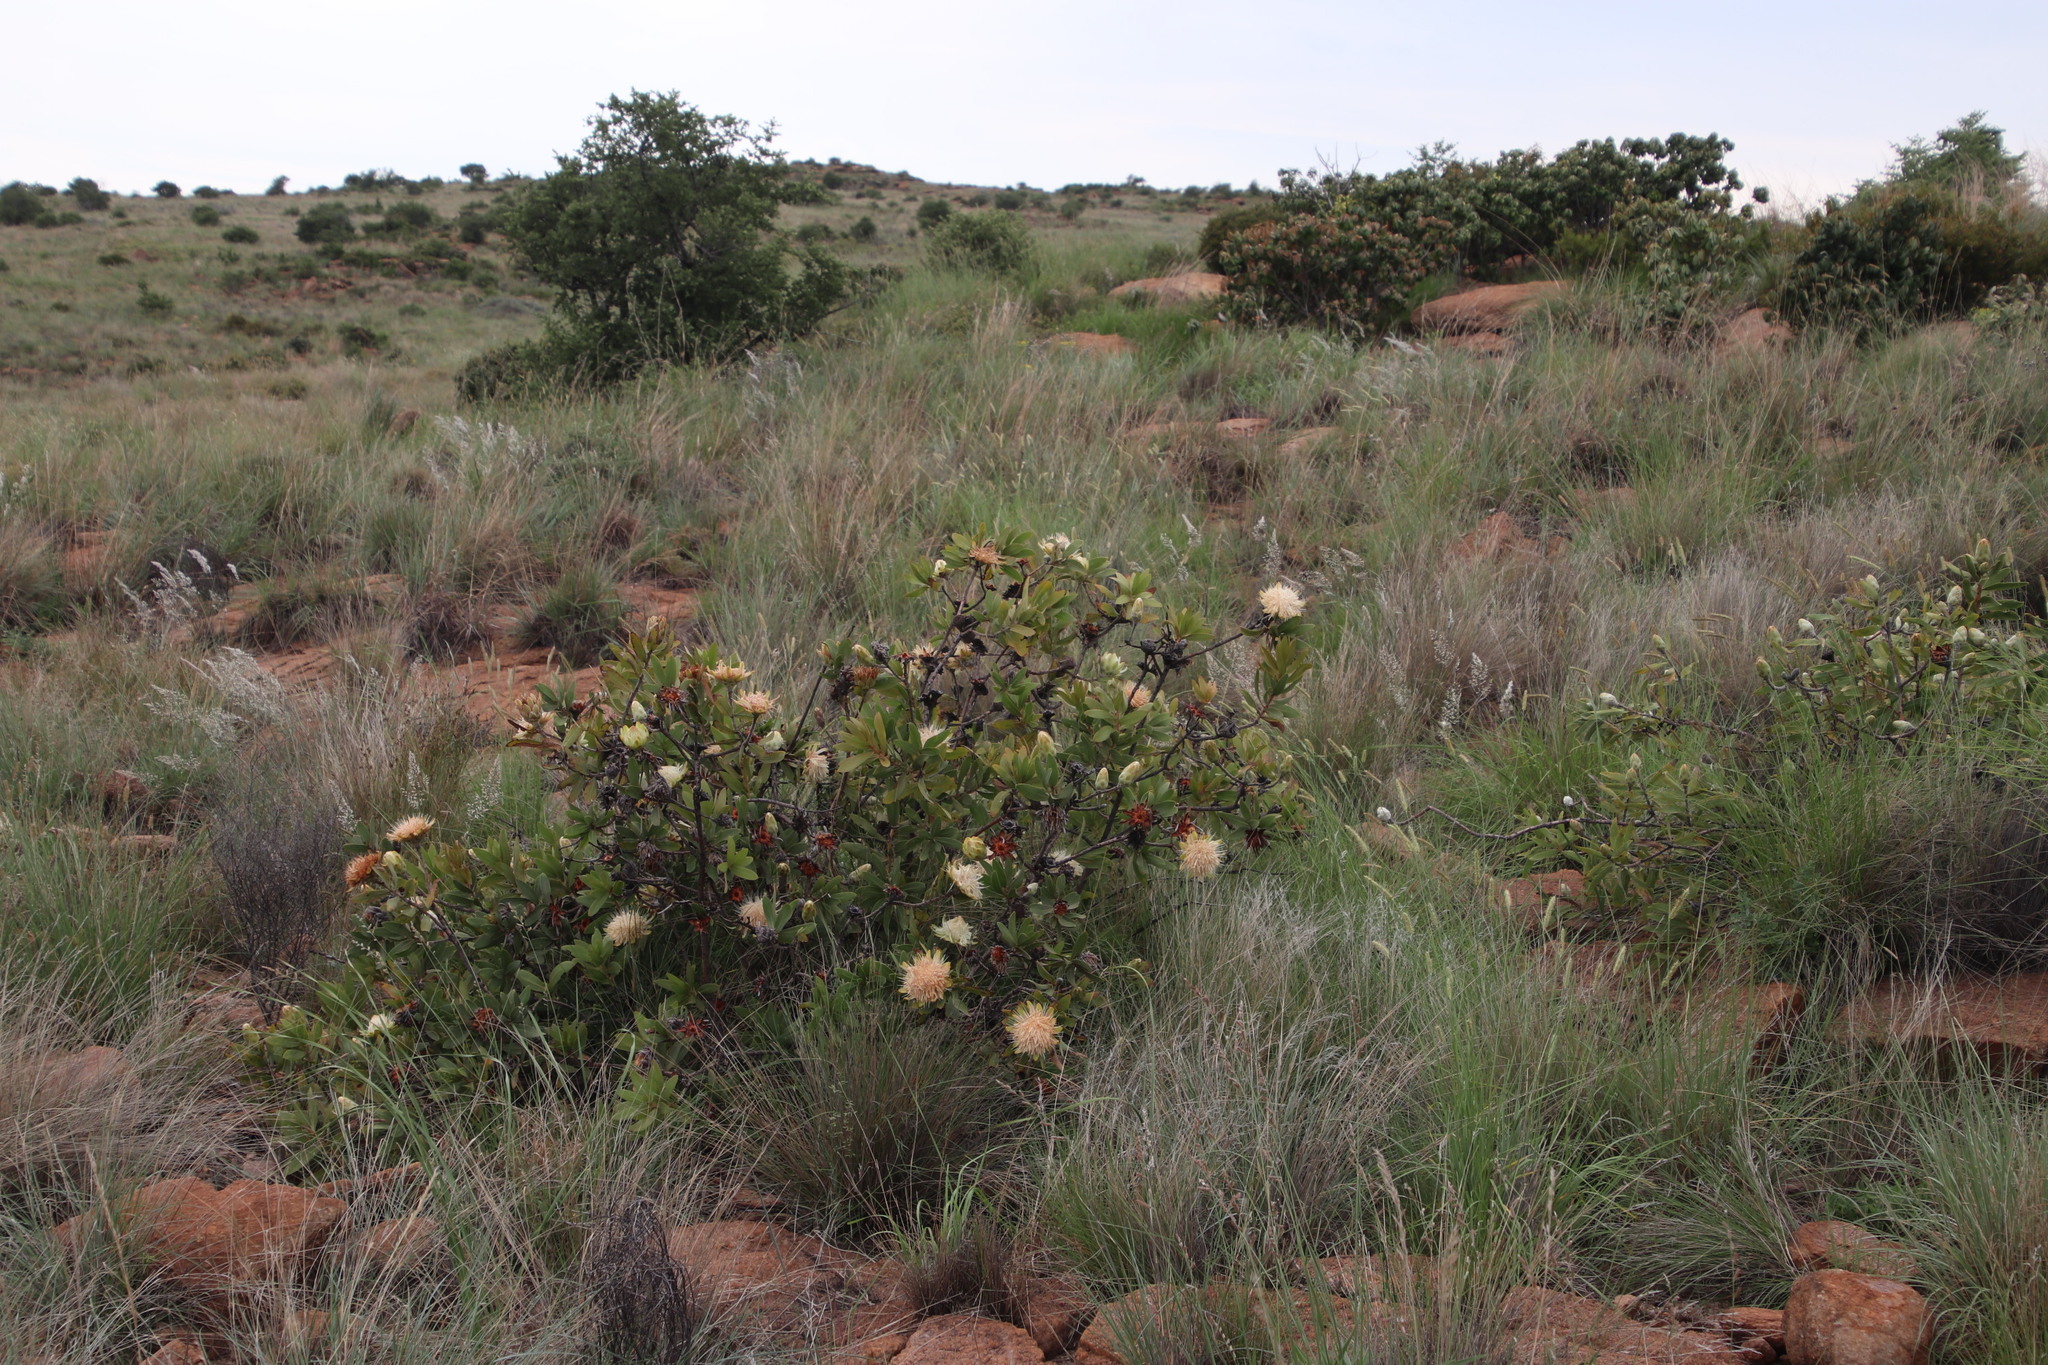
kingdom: Plantae
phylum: Tracheophyta
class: Magnoliopsida
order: Proteales
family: Proteaceae
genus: Protea
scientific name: Protea welwitschii
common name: Cluster-head protea
